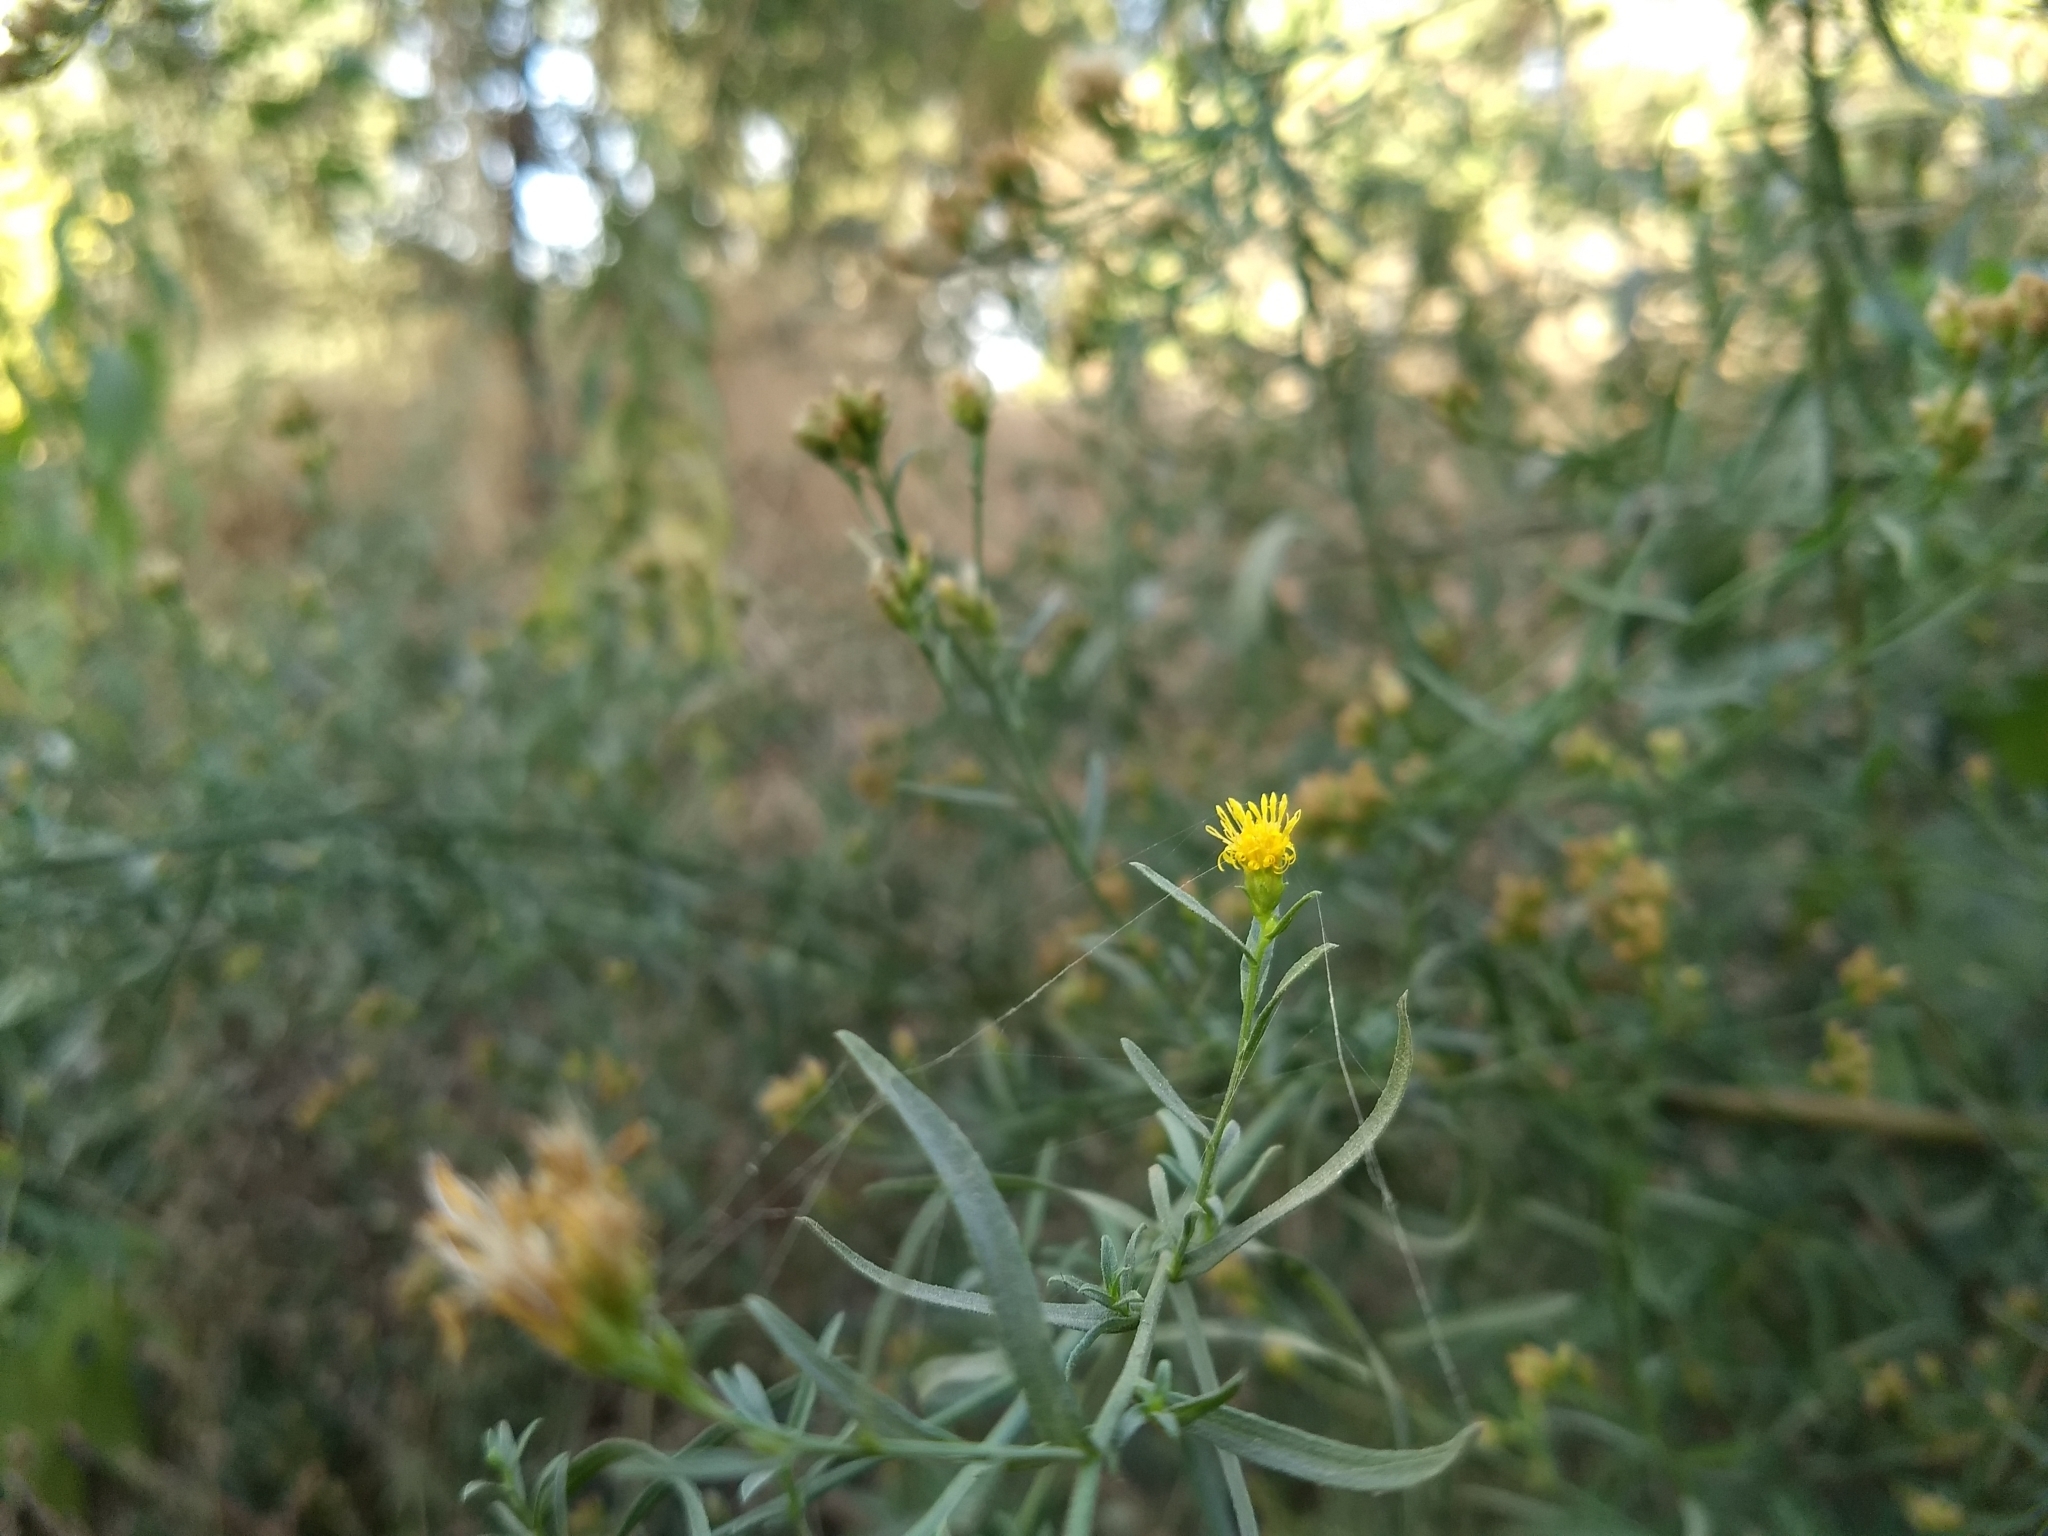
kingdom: Plantae
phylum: Tracheophyta
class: Magnoliopsida
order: Asterales
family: Asteraceae
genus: Euthamia
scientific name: Euthamia occidentalis
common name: Western goldentop
